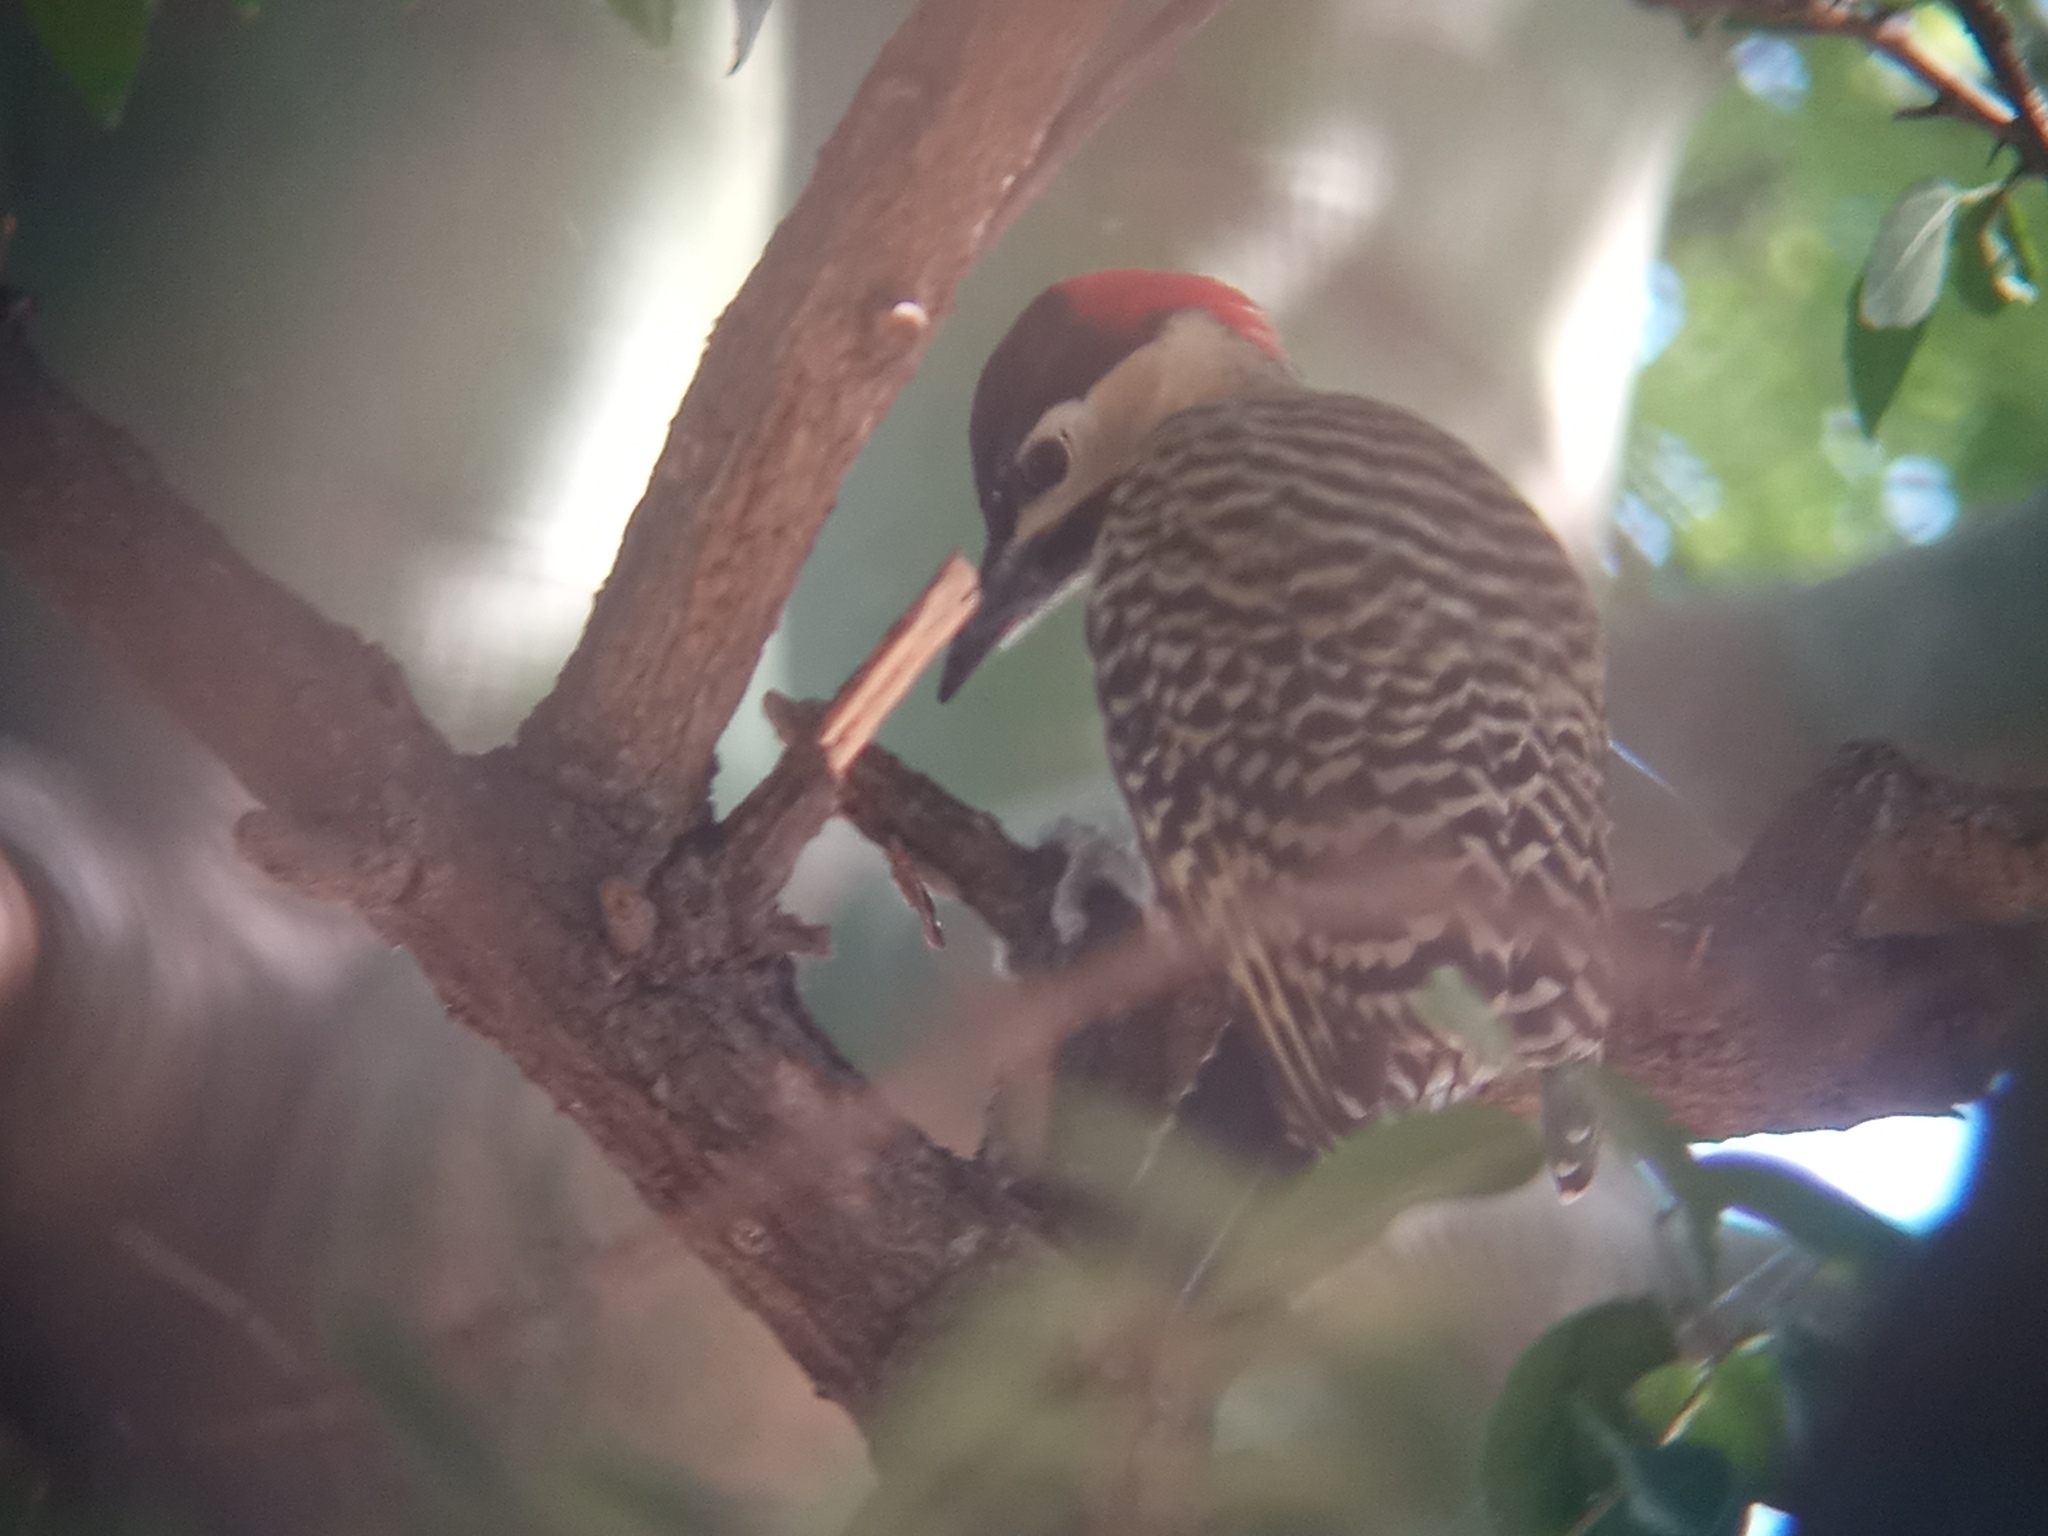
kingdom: Animalia
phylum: Chordata
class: Aves
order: Piciformes
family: Picidae
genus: Colaptes
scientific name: Colaptes melanochloros
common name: Green-barred woodpecker
